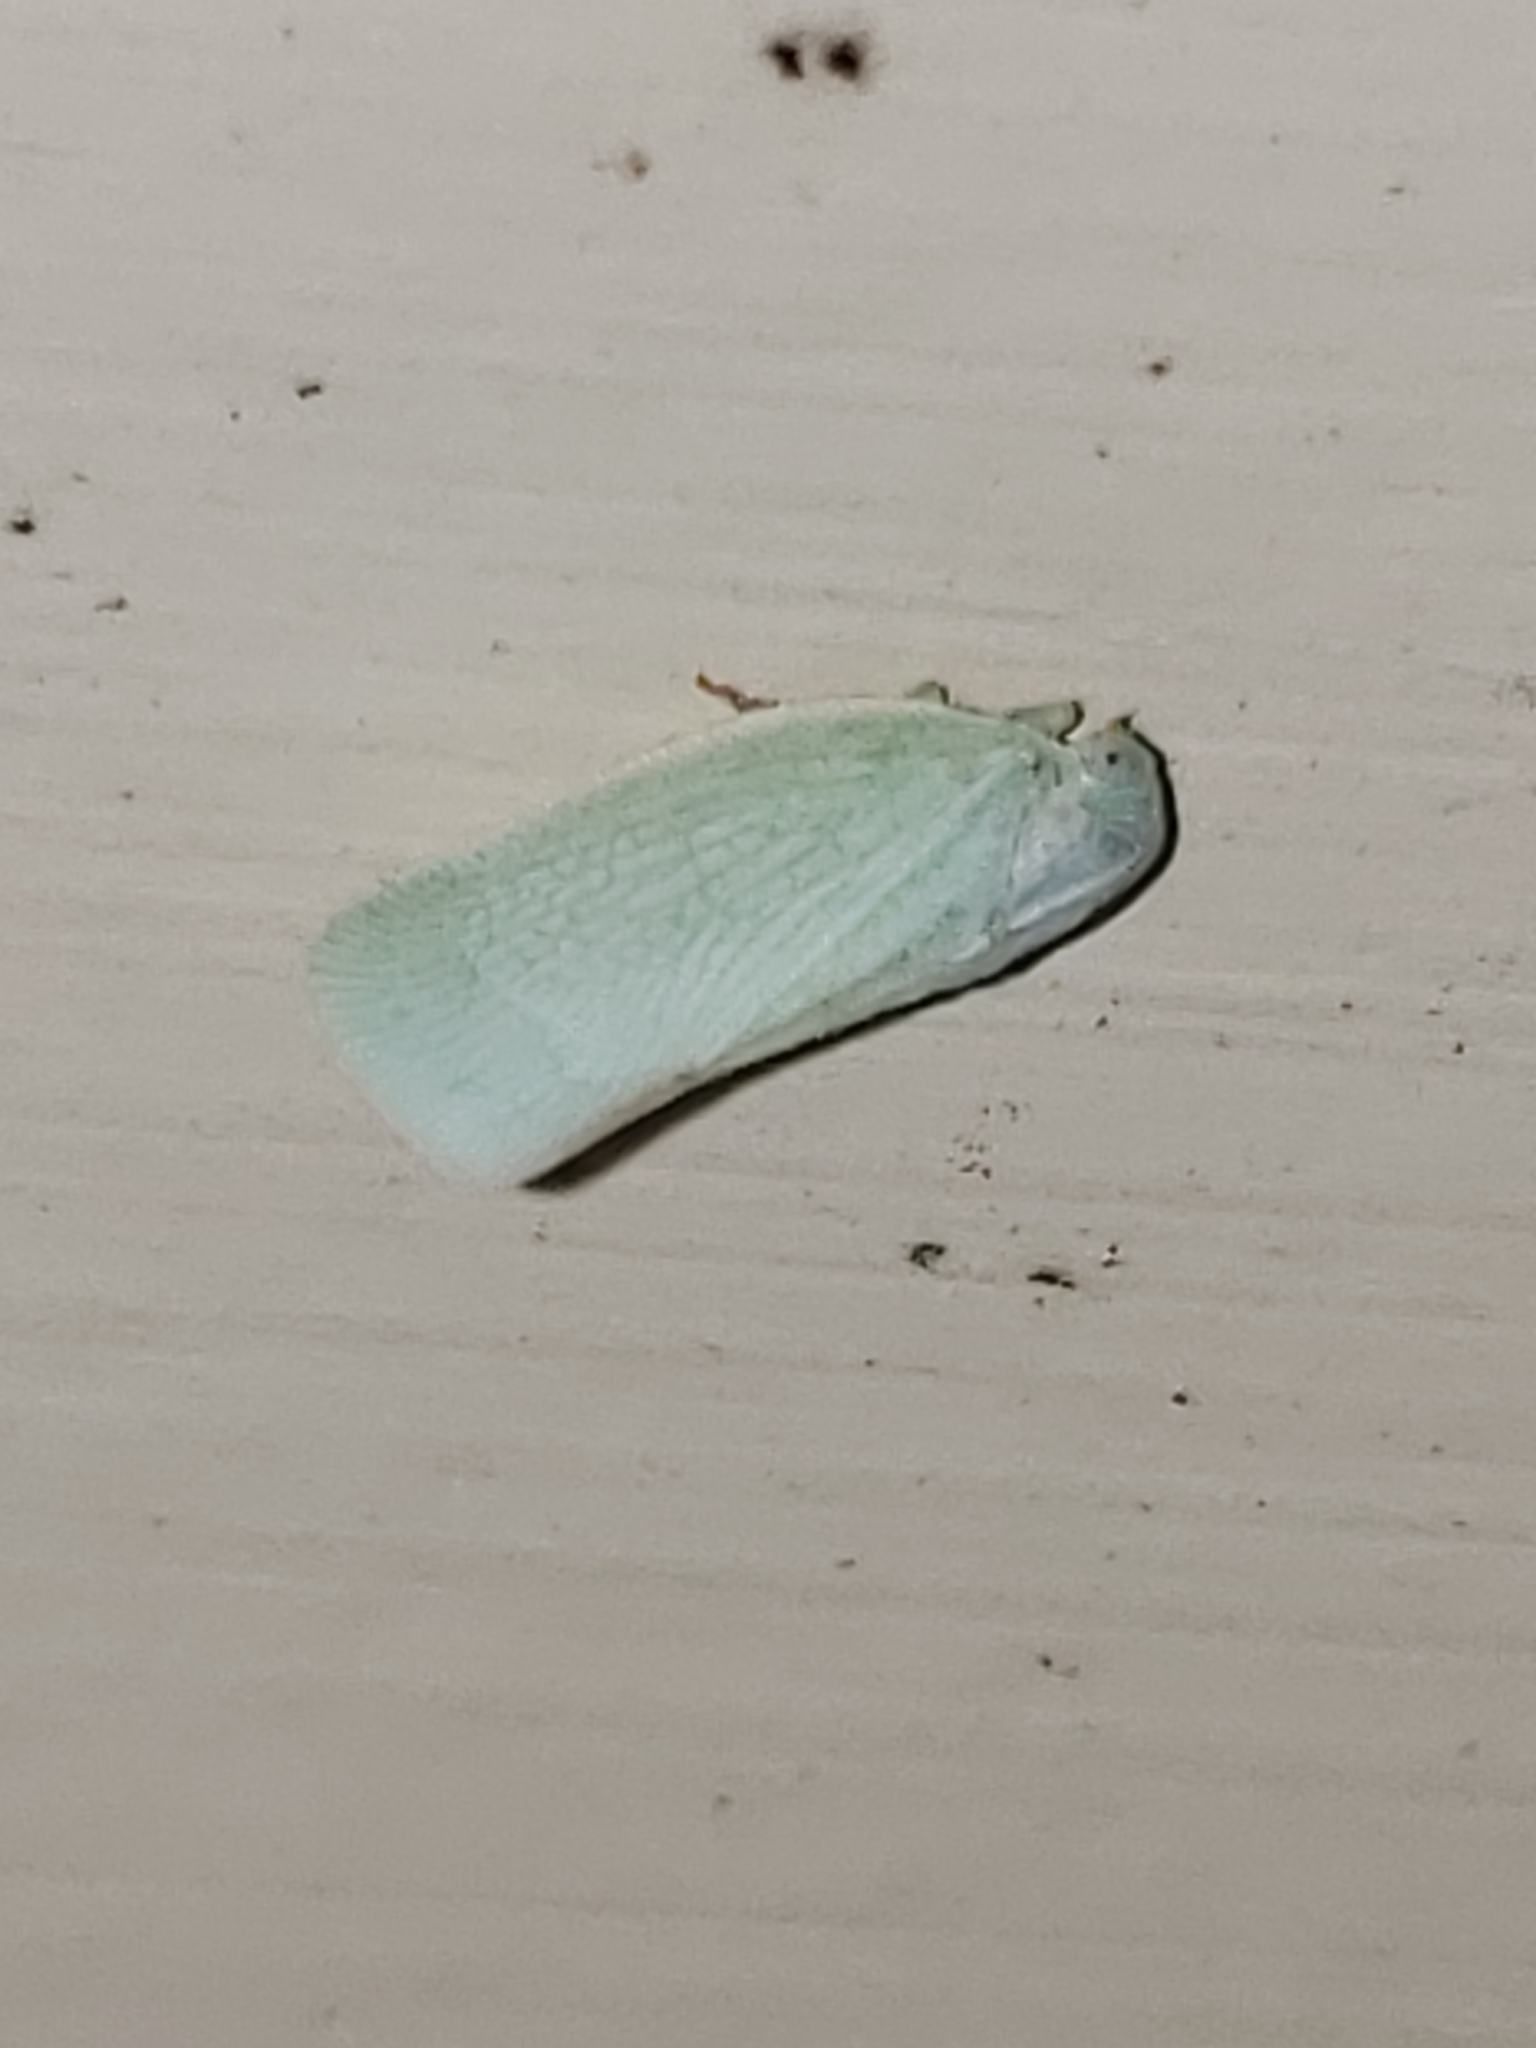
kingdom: Animalia
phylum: Arthropoda
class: Insecta
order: Hemiptera
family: Flatidae
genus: Flatormenis
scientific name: Flatormenis proxima
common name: Northern flatid planthopper
